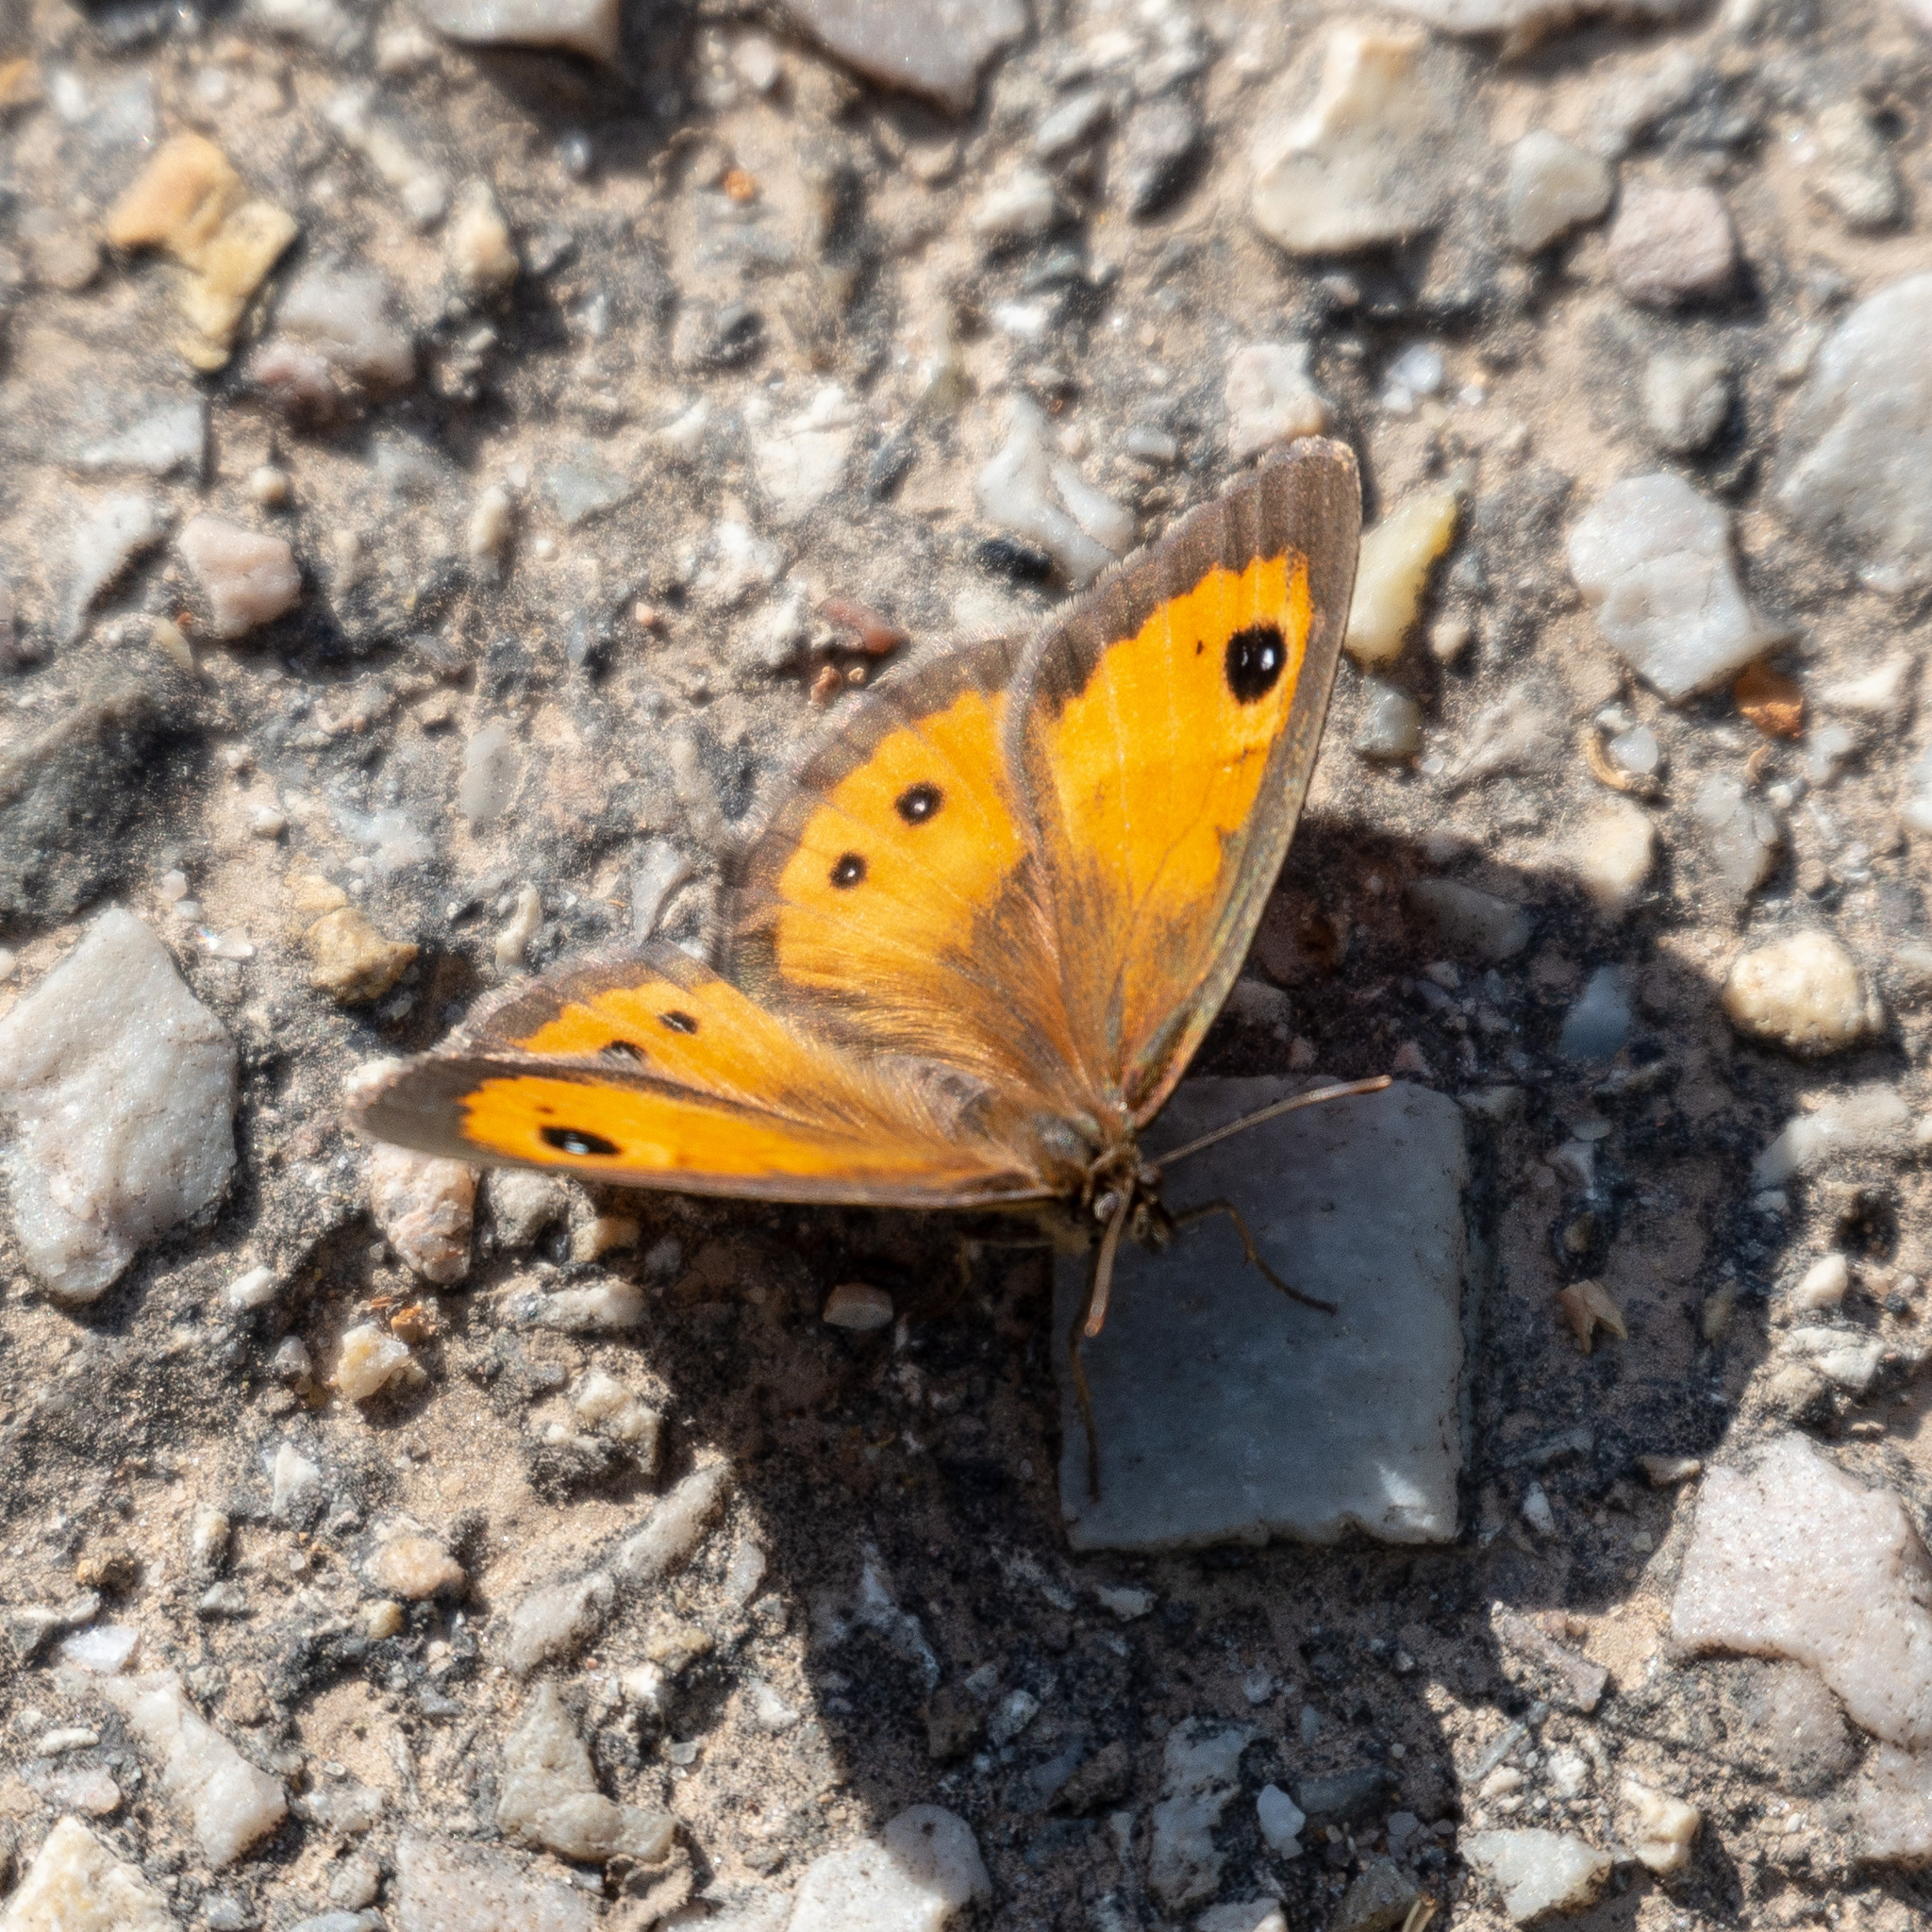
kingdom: Animalia
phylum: Arthropoda
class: Insecta
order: Lepidoptera
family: Nymphalidae
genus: Pyronia
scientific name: Pyronia bathseba
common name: Spanish gatekeeper
